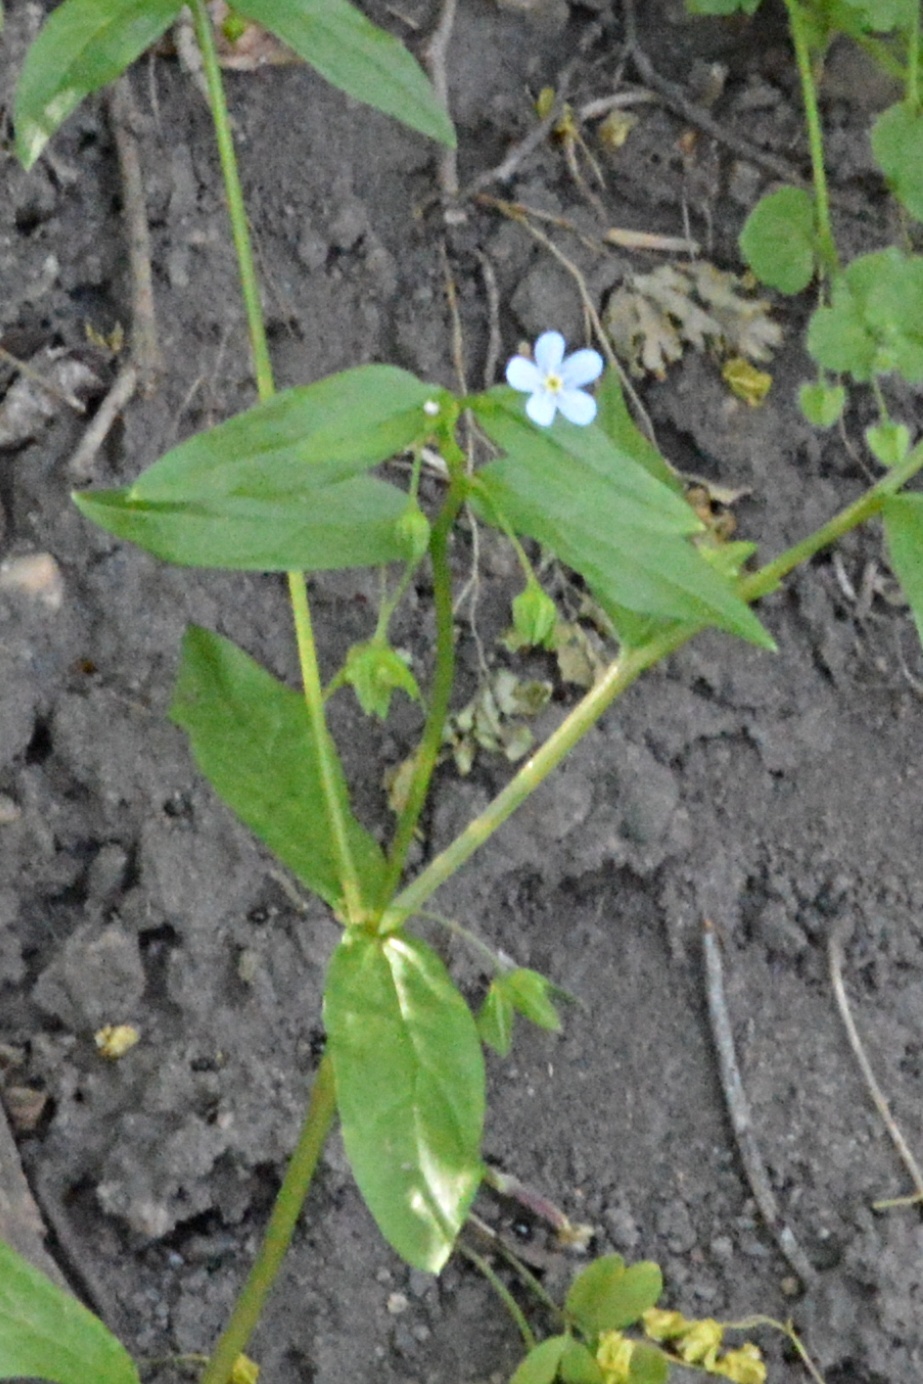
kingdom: Plantae
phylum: Tracheophyta
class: Magnoliopsida
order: Boraginales
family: Boraginaceae
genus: Memoremea
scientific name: Memoremea scorpioides
